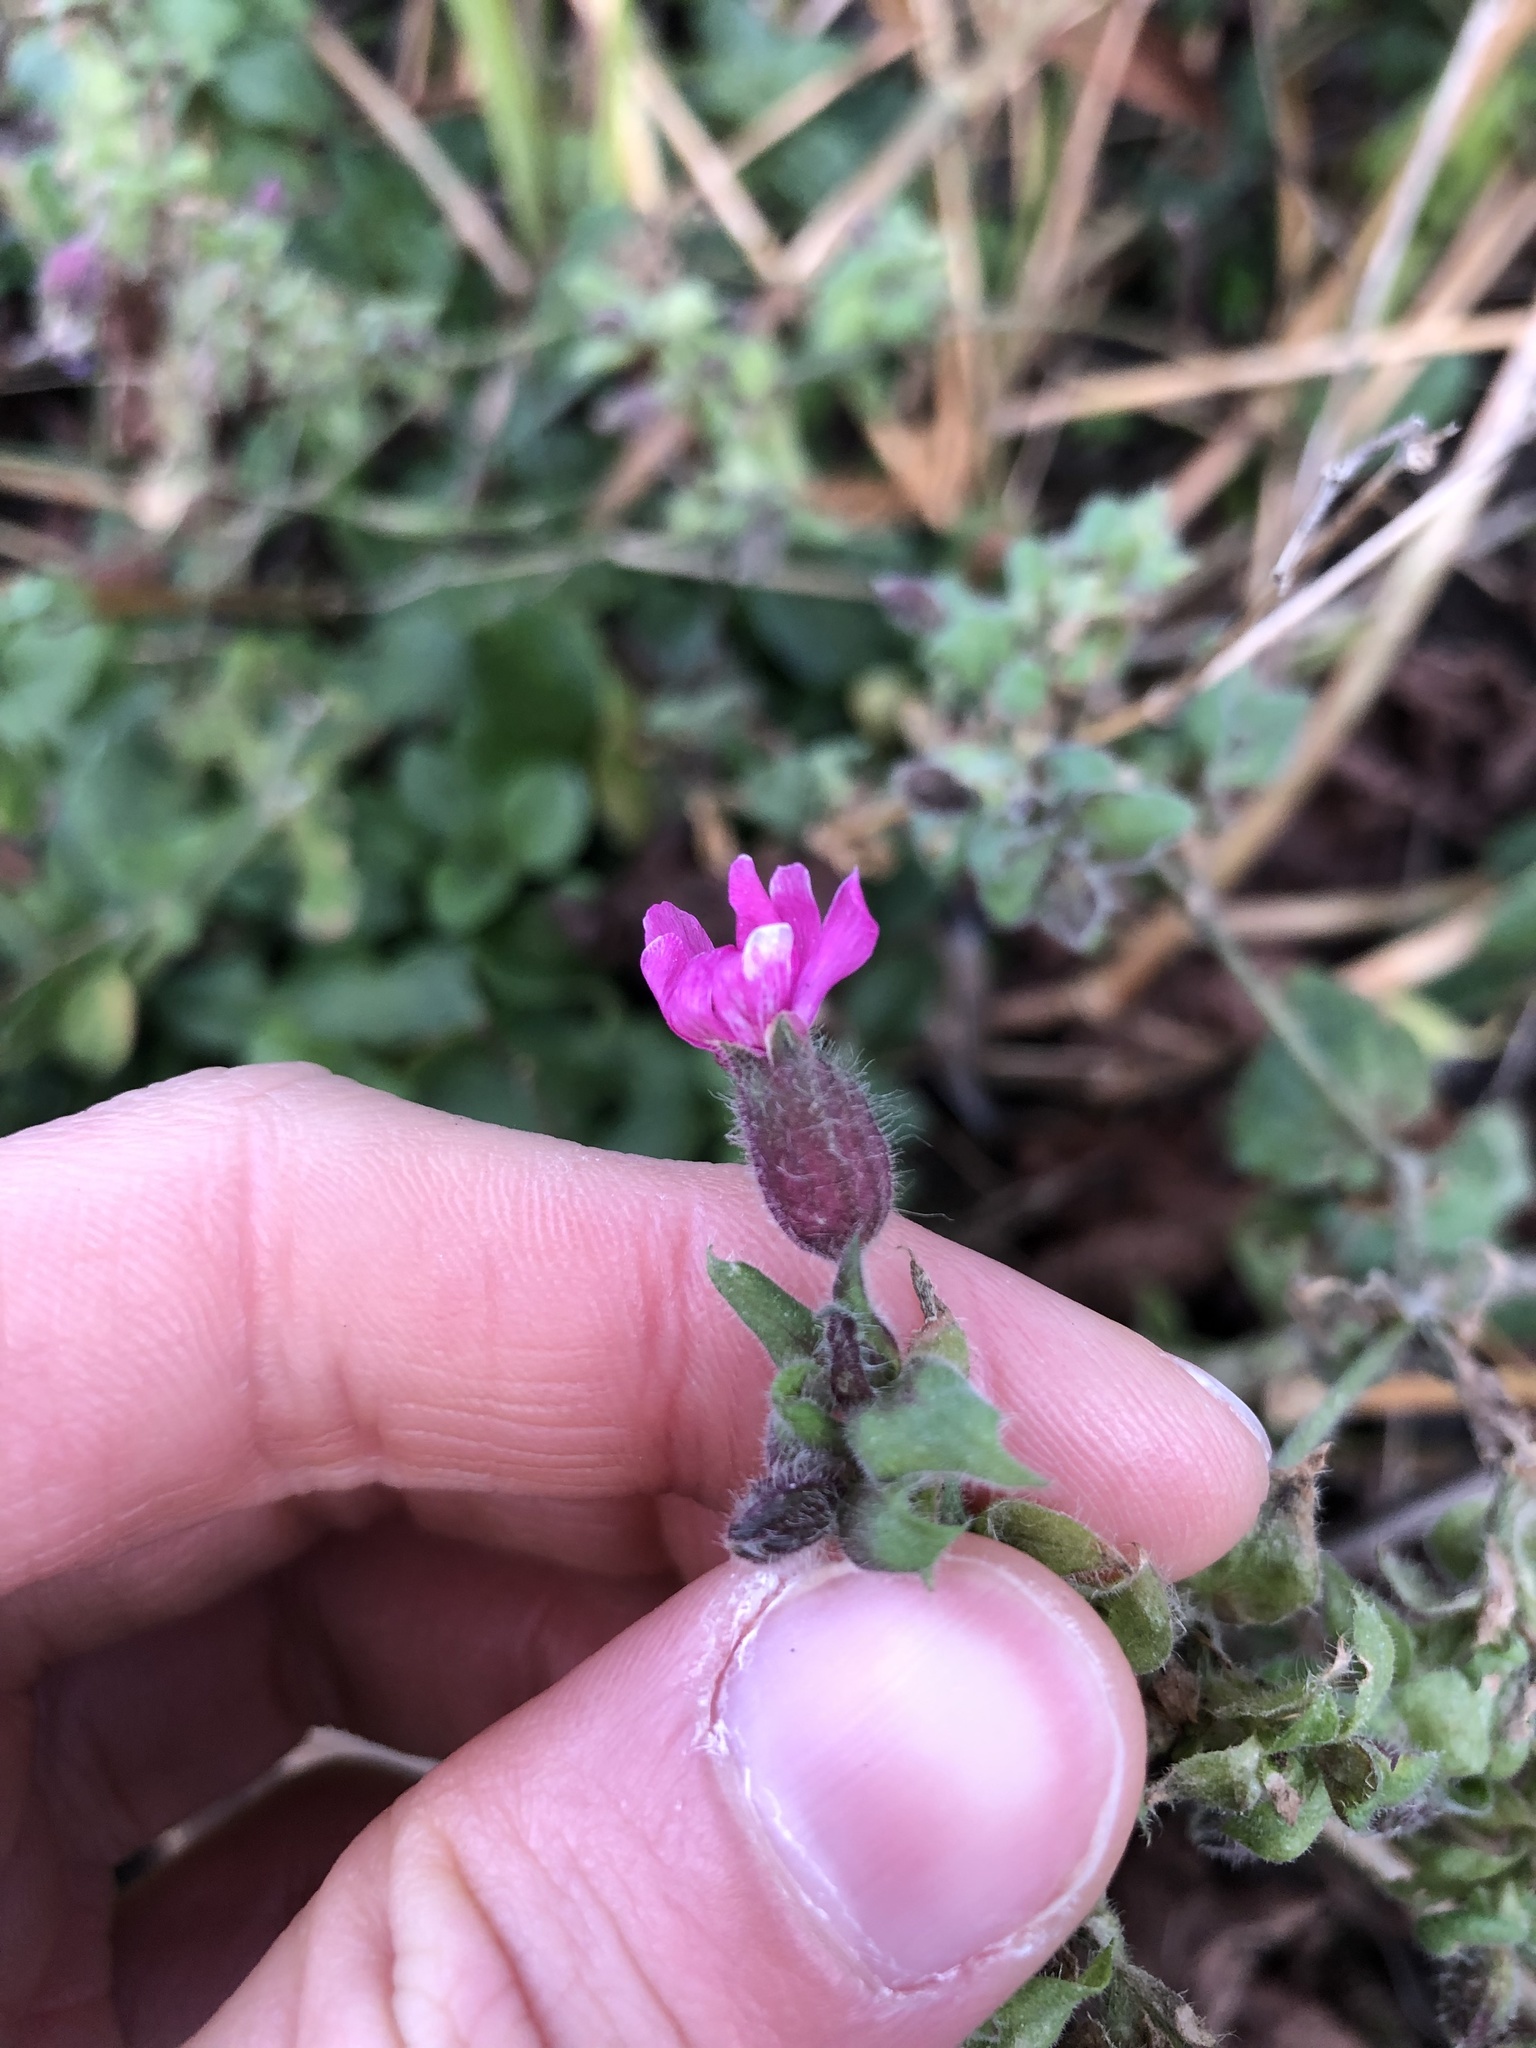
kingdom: Plantae
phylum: Tracheophyta
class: Magnoliopsida
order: Caryophyllales
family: Caryophyllaceae
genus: Silene
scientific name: Silene dioica
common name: Red campion
